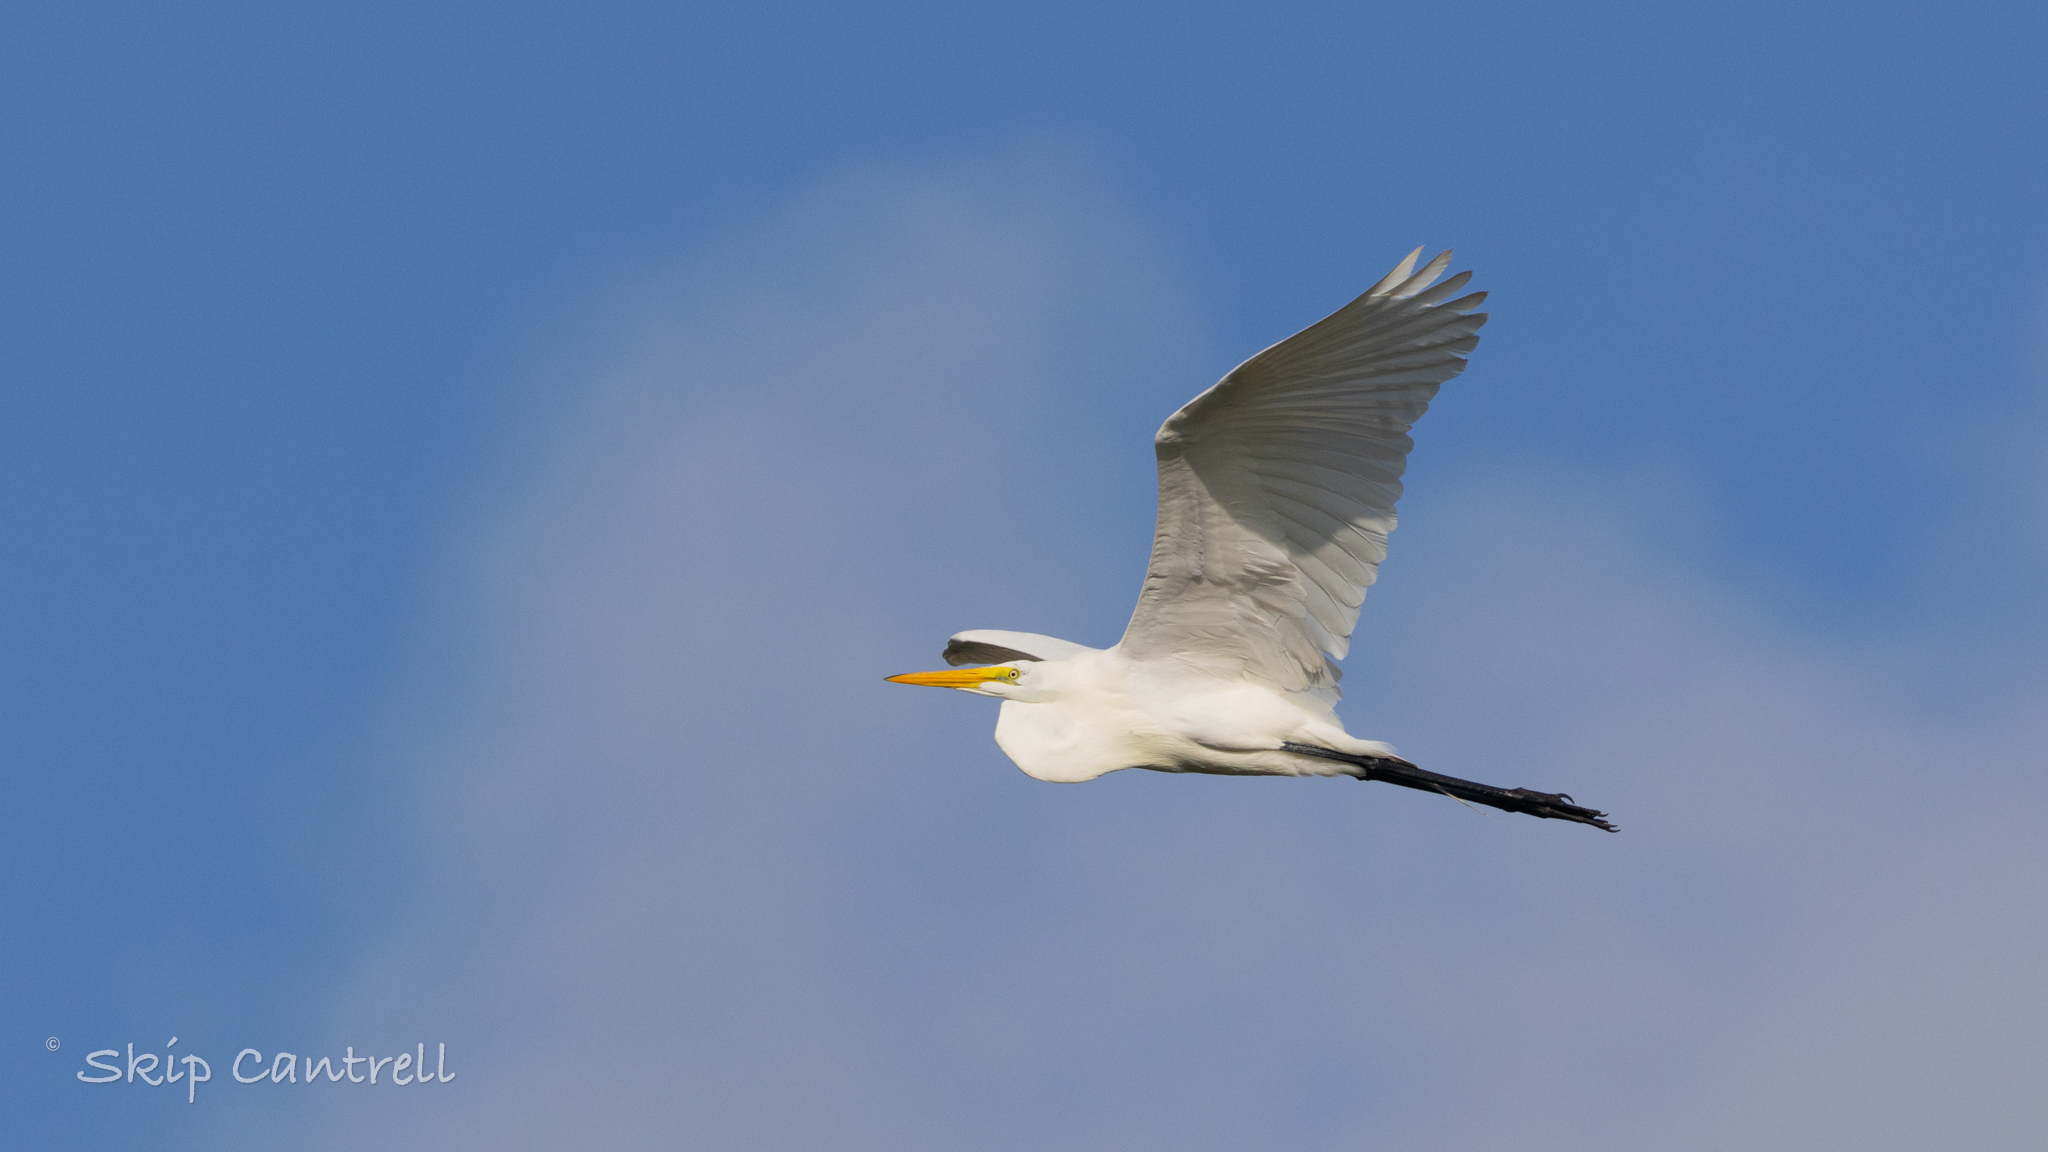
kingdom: Animalia
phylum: Chordata
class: Aves
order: Pelecaniformes
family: Ardeidae
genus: Ardea
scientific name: Ardea alba
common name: Great egret
